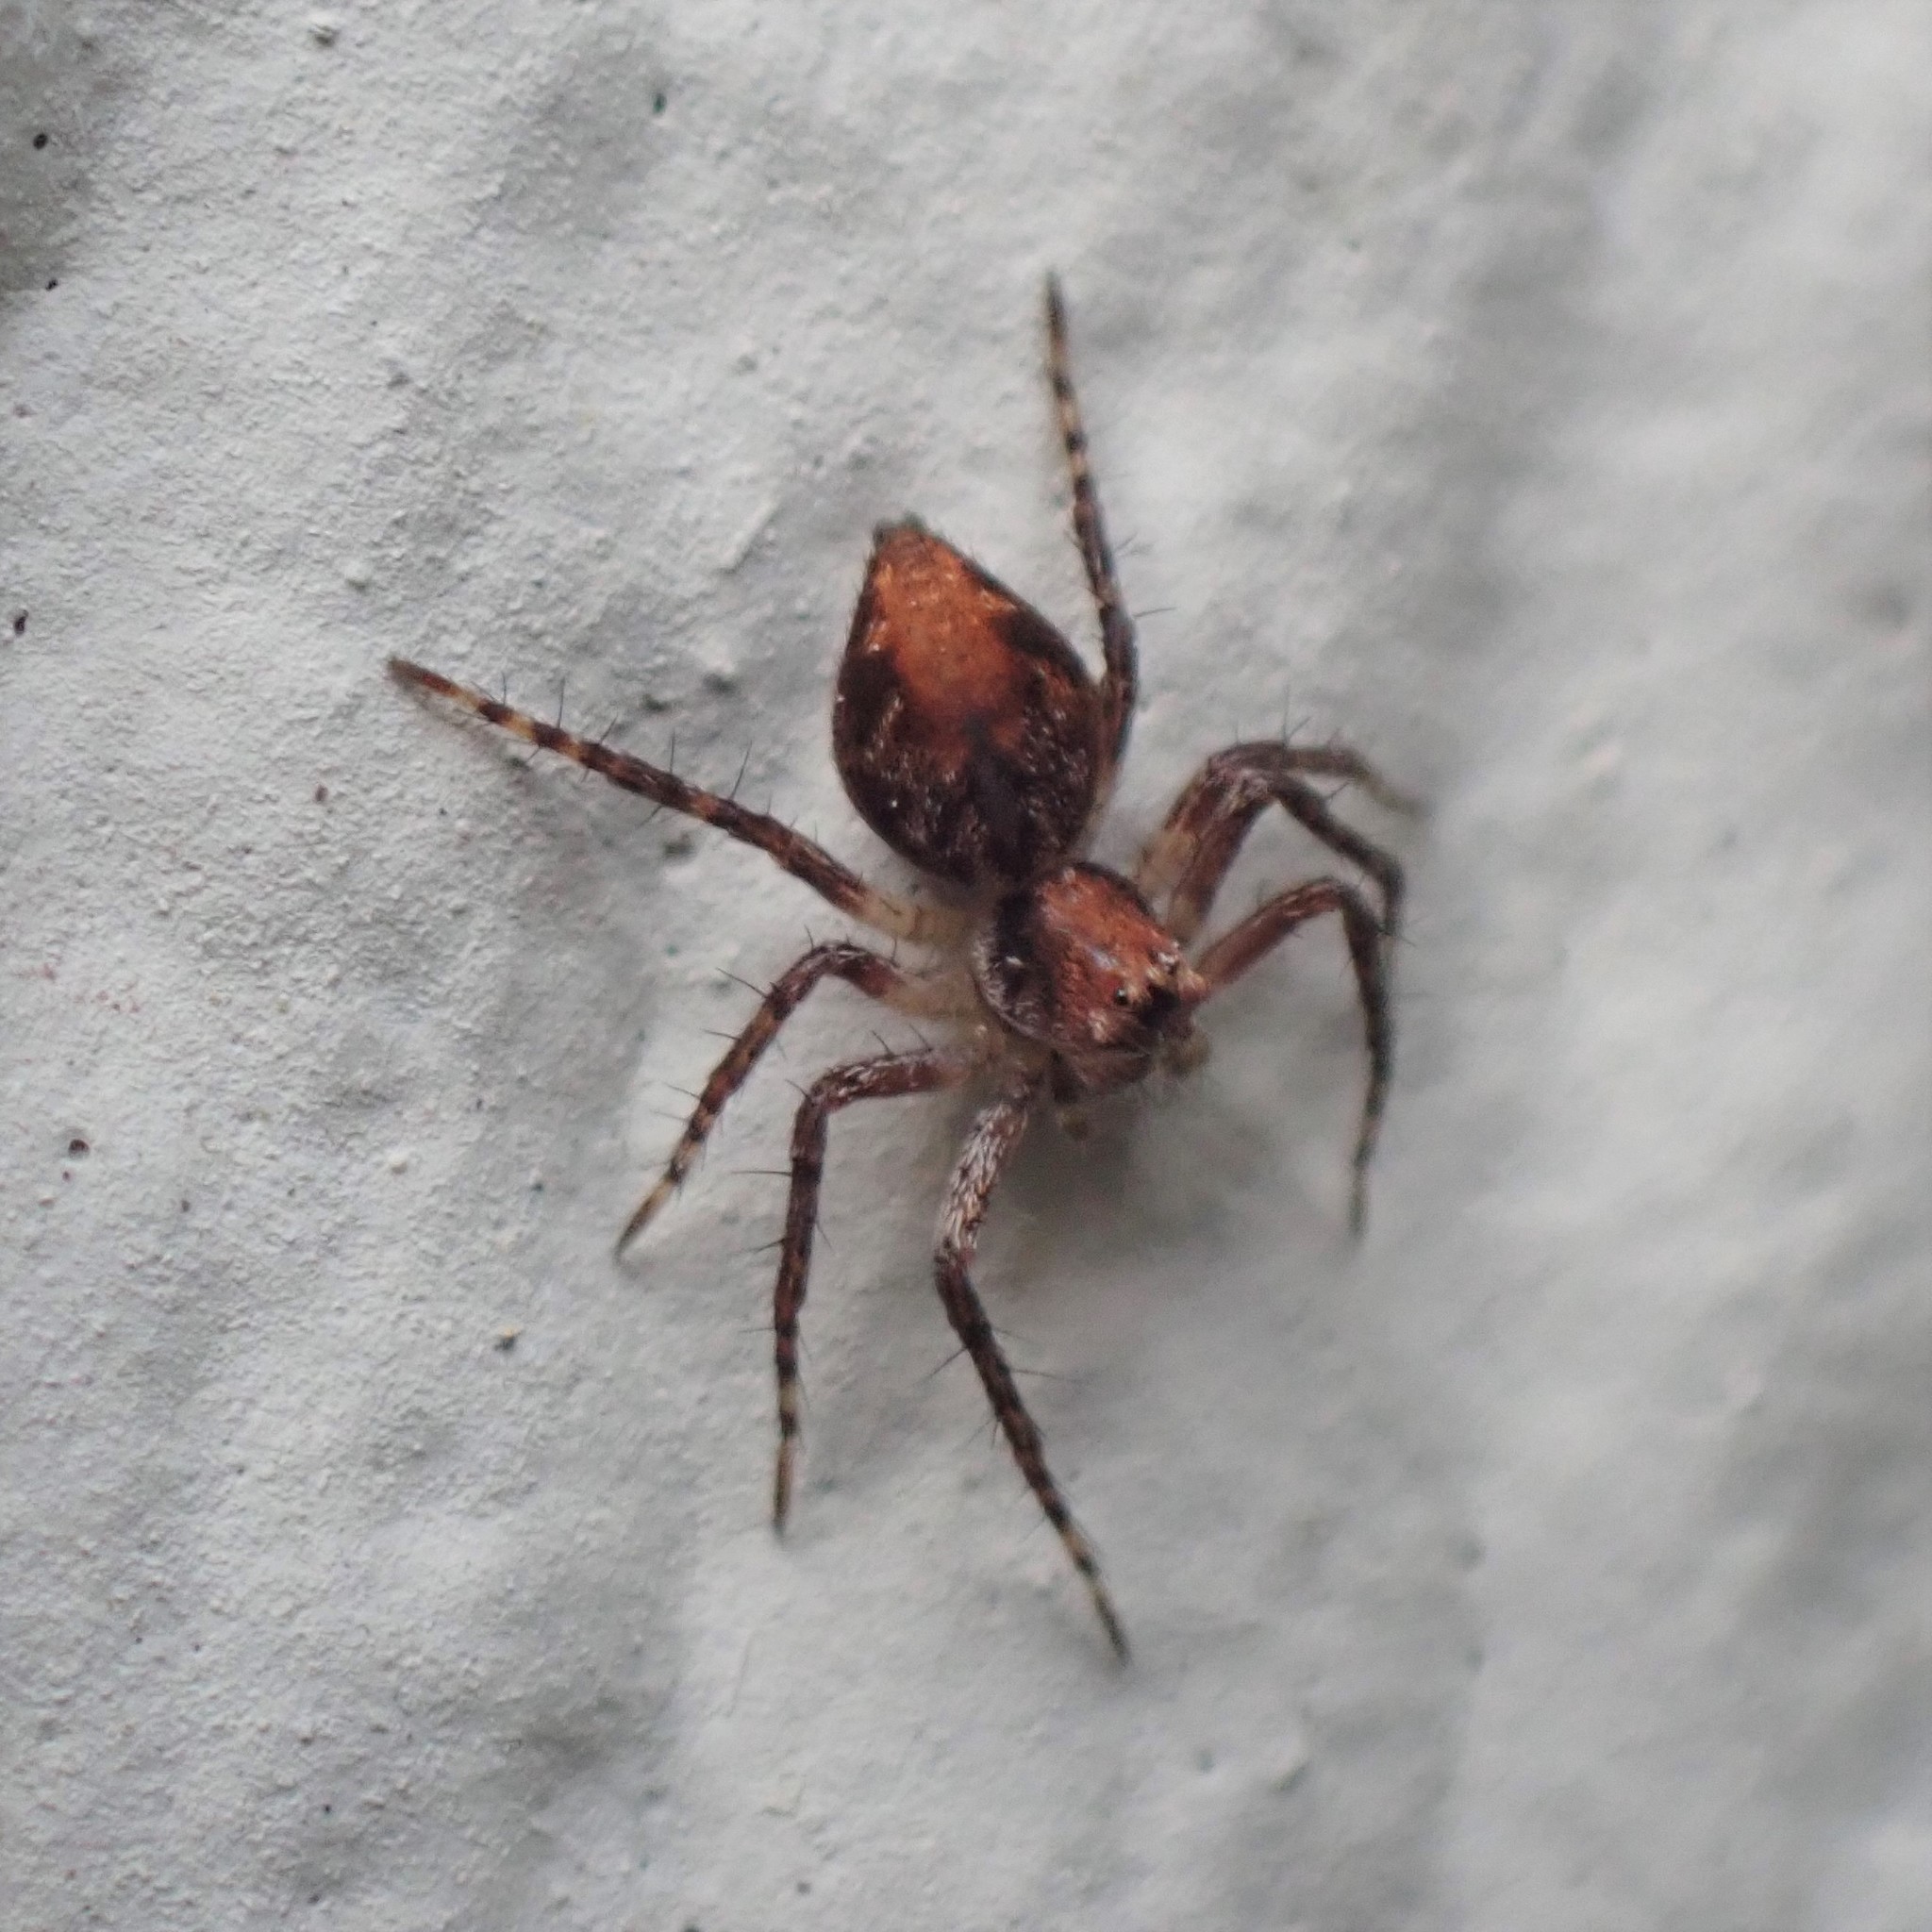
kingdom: Animalia
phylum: Arthropoda
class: Arachnida
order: Araneae
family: Oxyopidae
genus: Oxyopes
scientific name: Oxyopes scalaris
